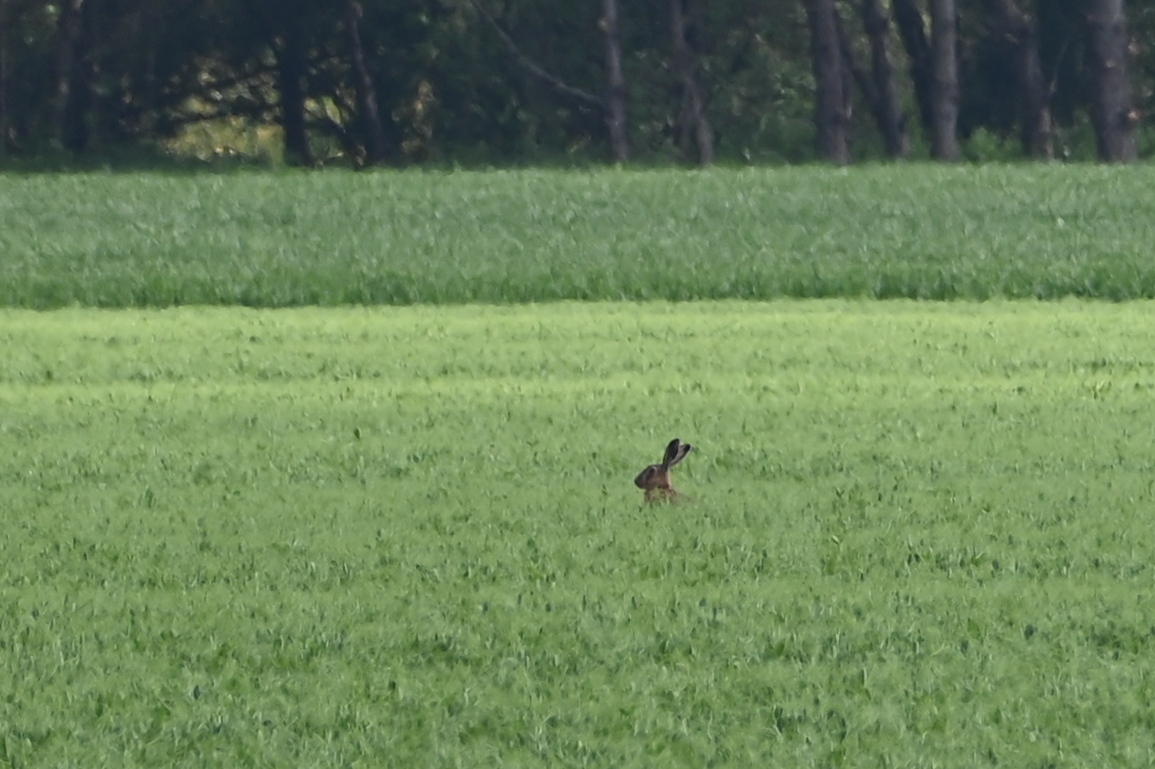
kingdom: Animalia
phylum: Chordata
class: Mammalia
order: Lagomorpha
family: Leporidae
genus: Lepus
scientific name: Lepus europaeus
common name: European hare
